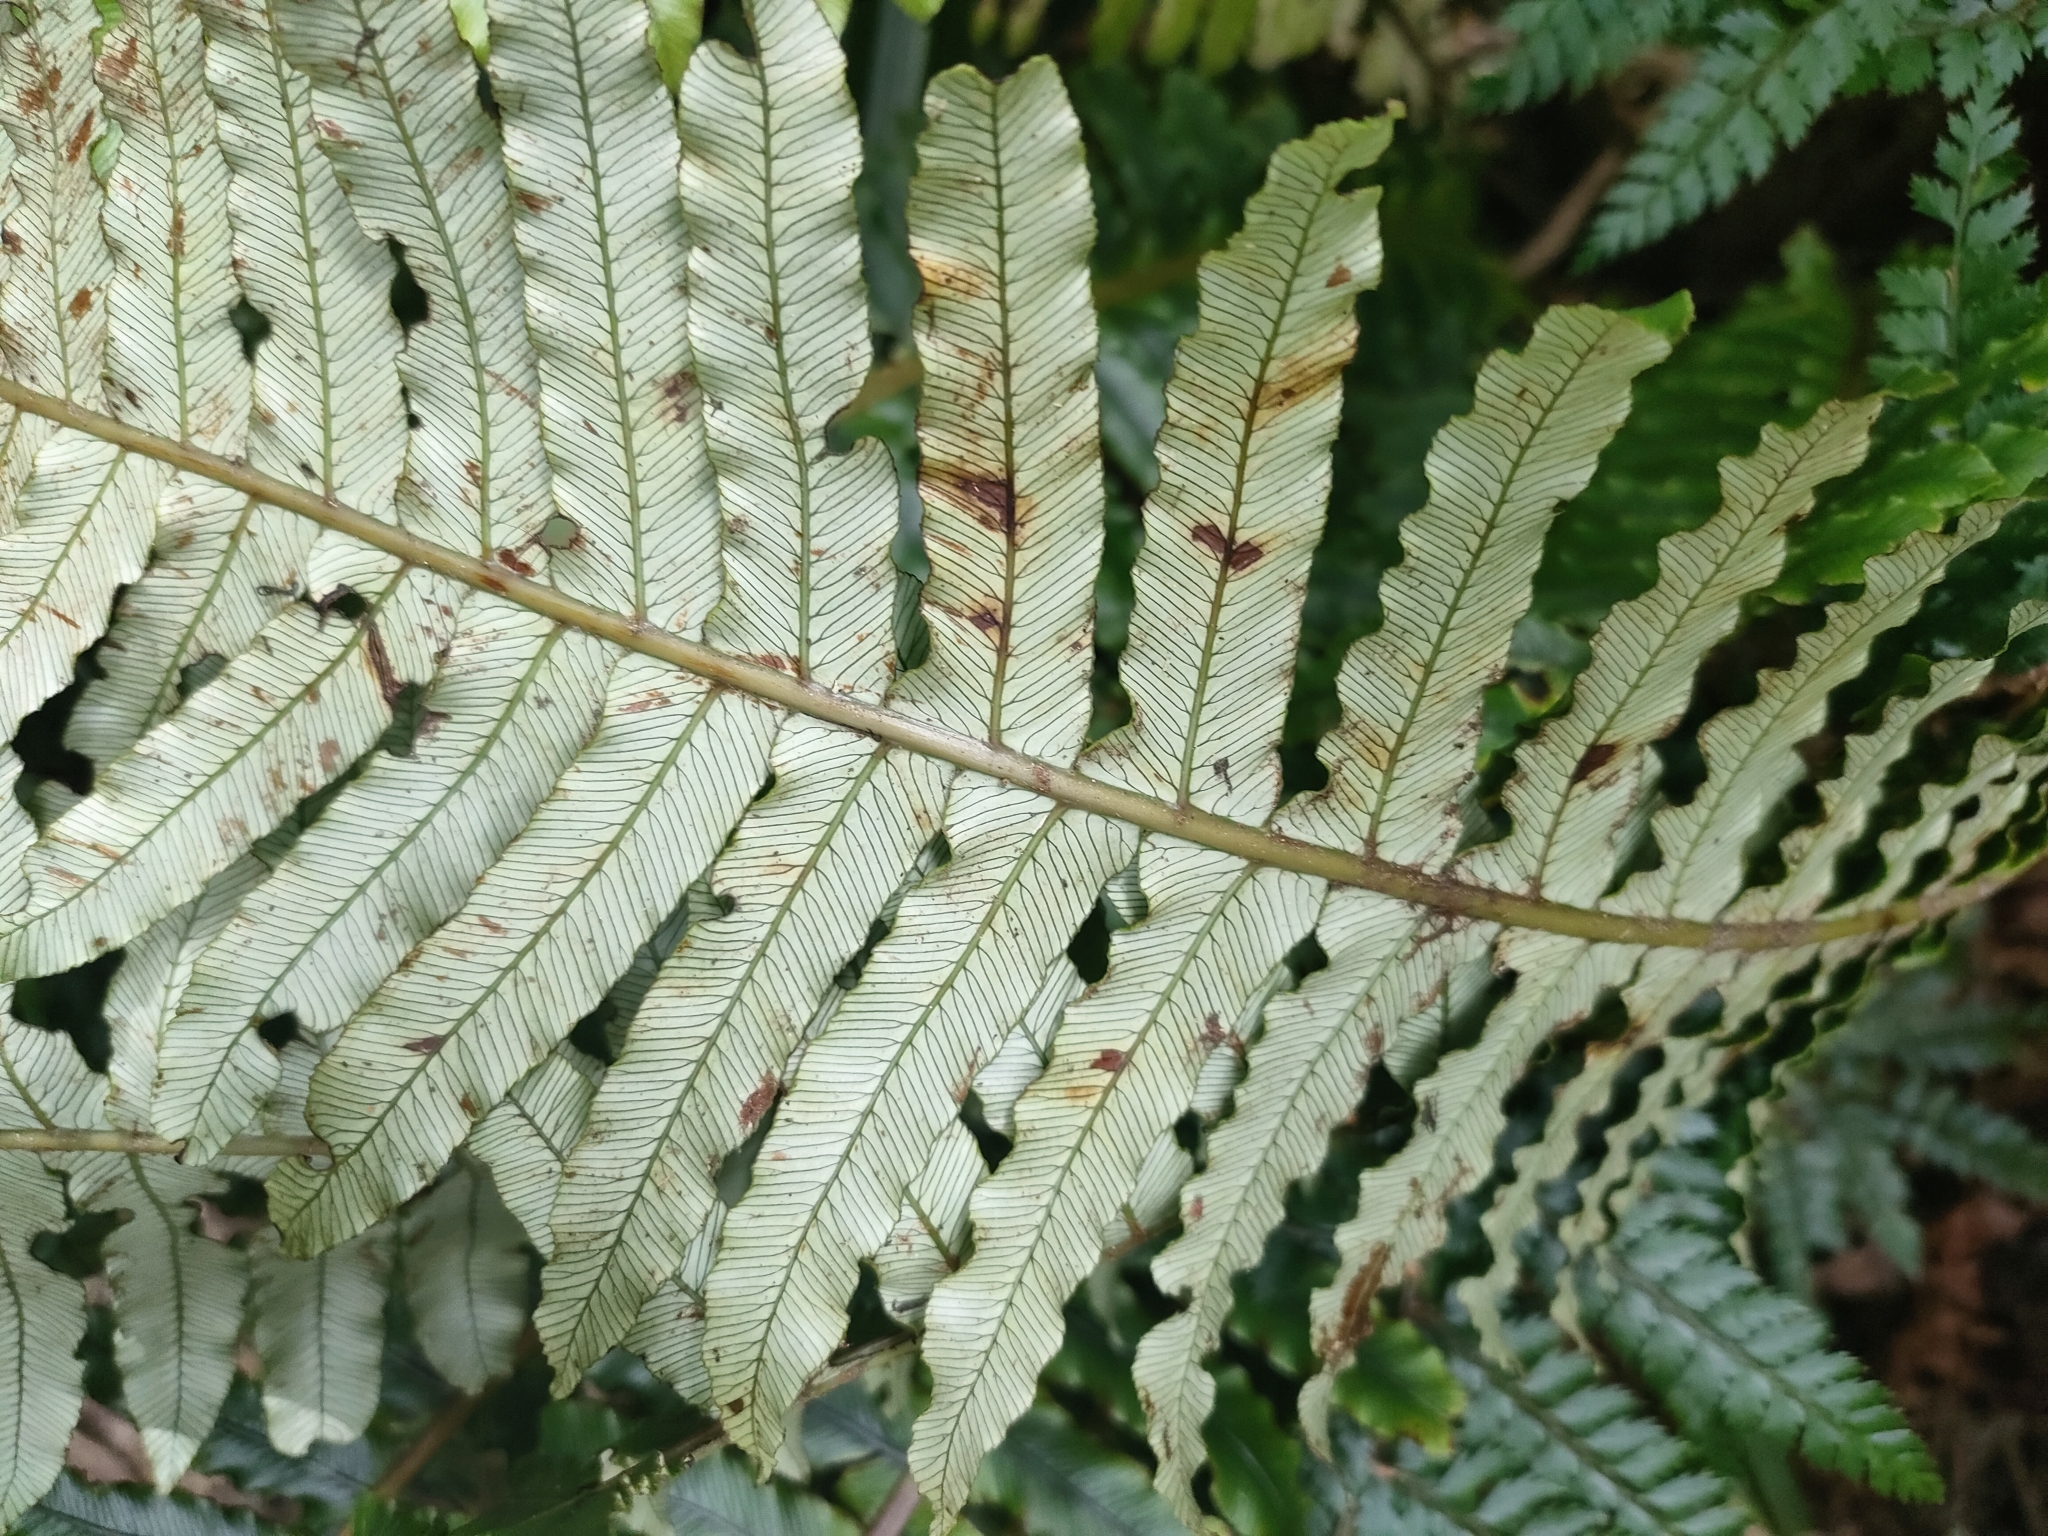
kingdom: Plantae
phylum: Tracheophyta
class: Polypodiopsida
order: Polypodiales
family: Blechnaceae
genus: Lomaria
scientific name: Lomaria discolor
